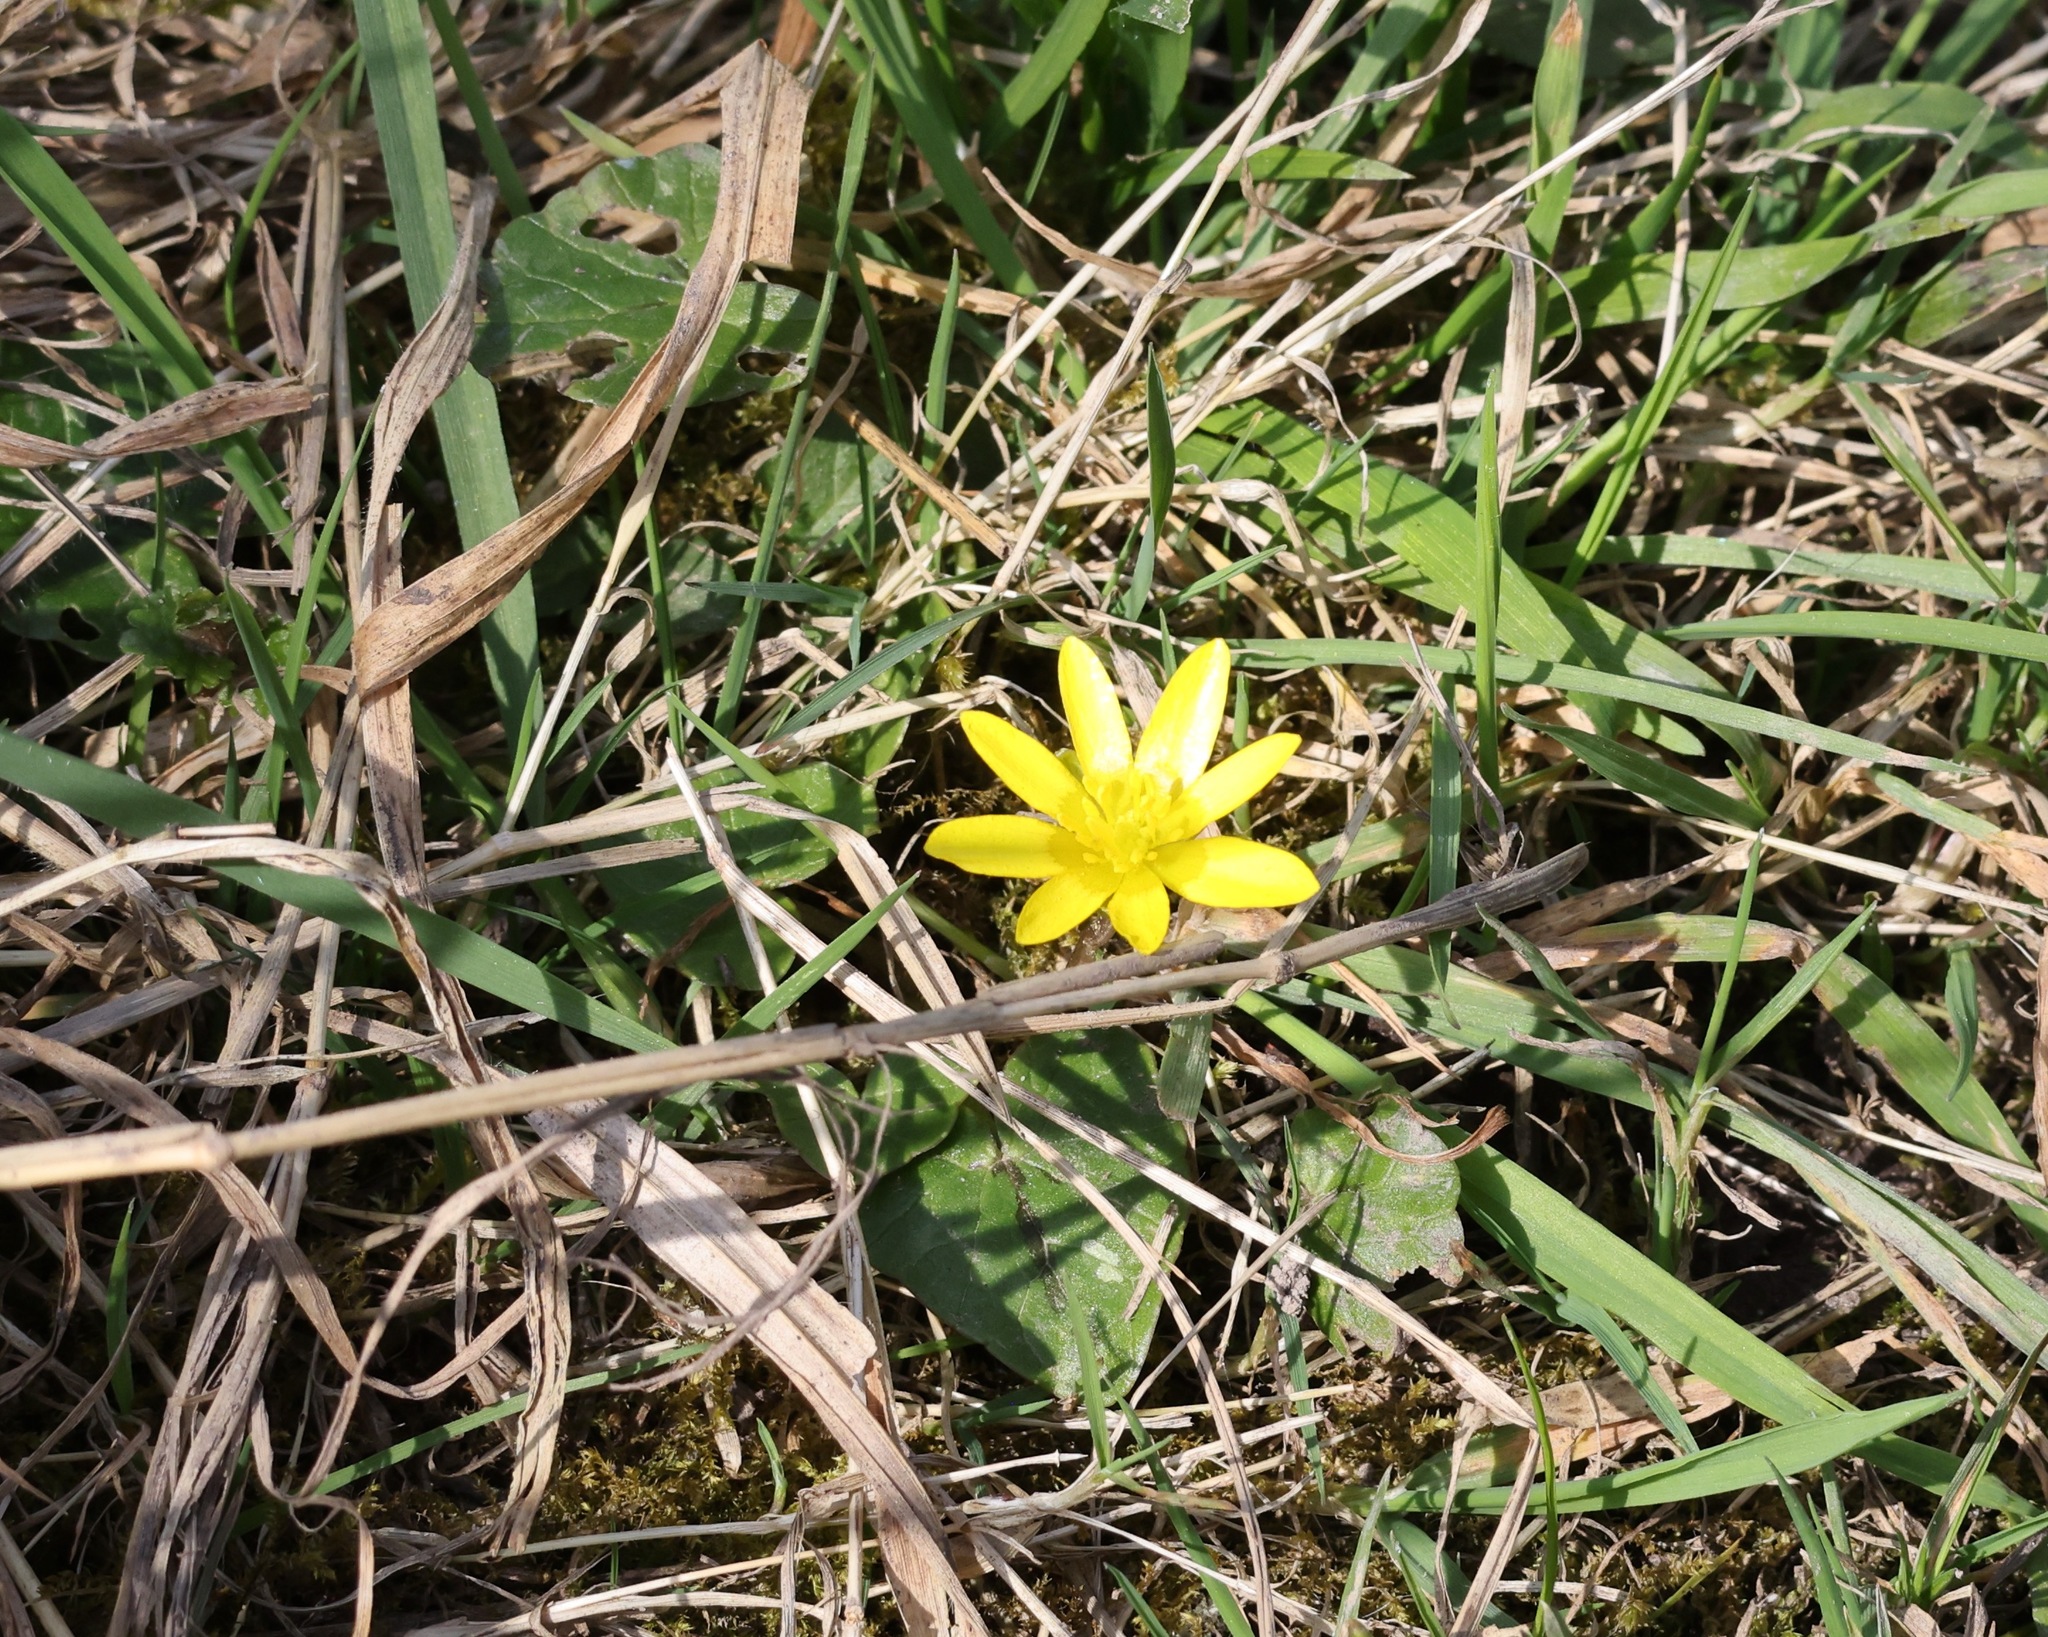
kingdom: Plantae
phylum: Tracheophyta
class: Magnoliopsida
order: Ranunculales
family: Ranunculaceae
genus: Ficaria
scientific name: Ficaria verna
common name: Lesser celandine
